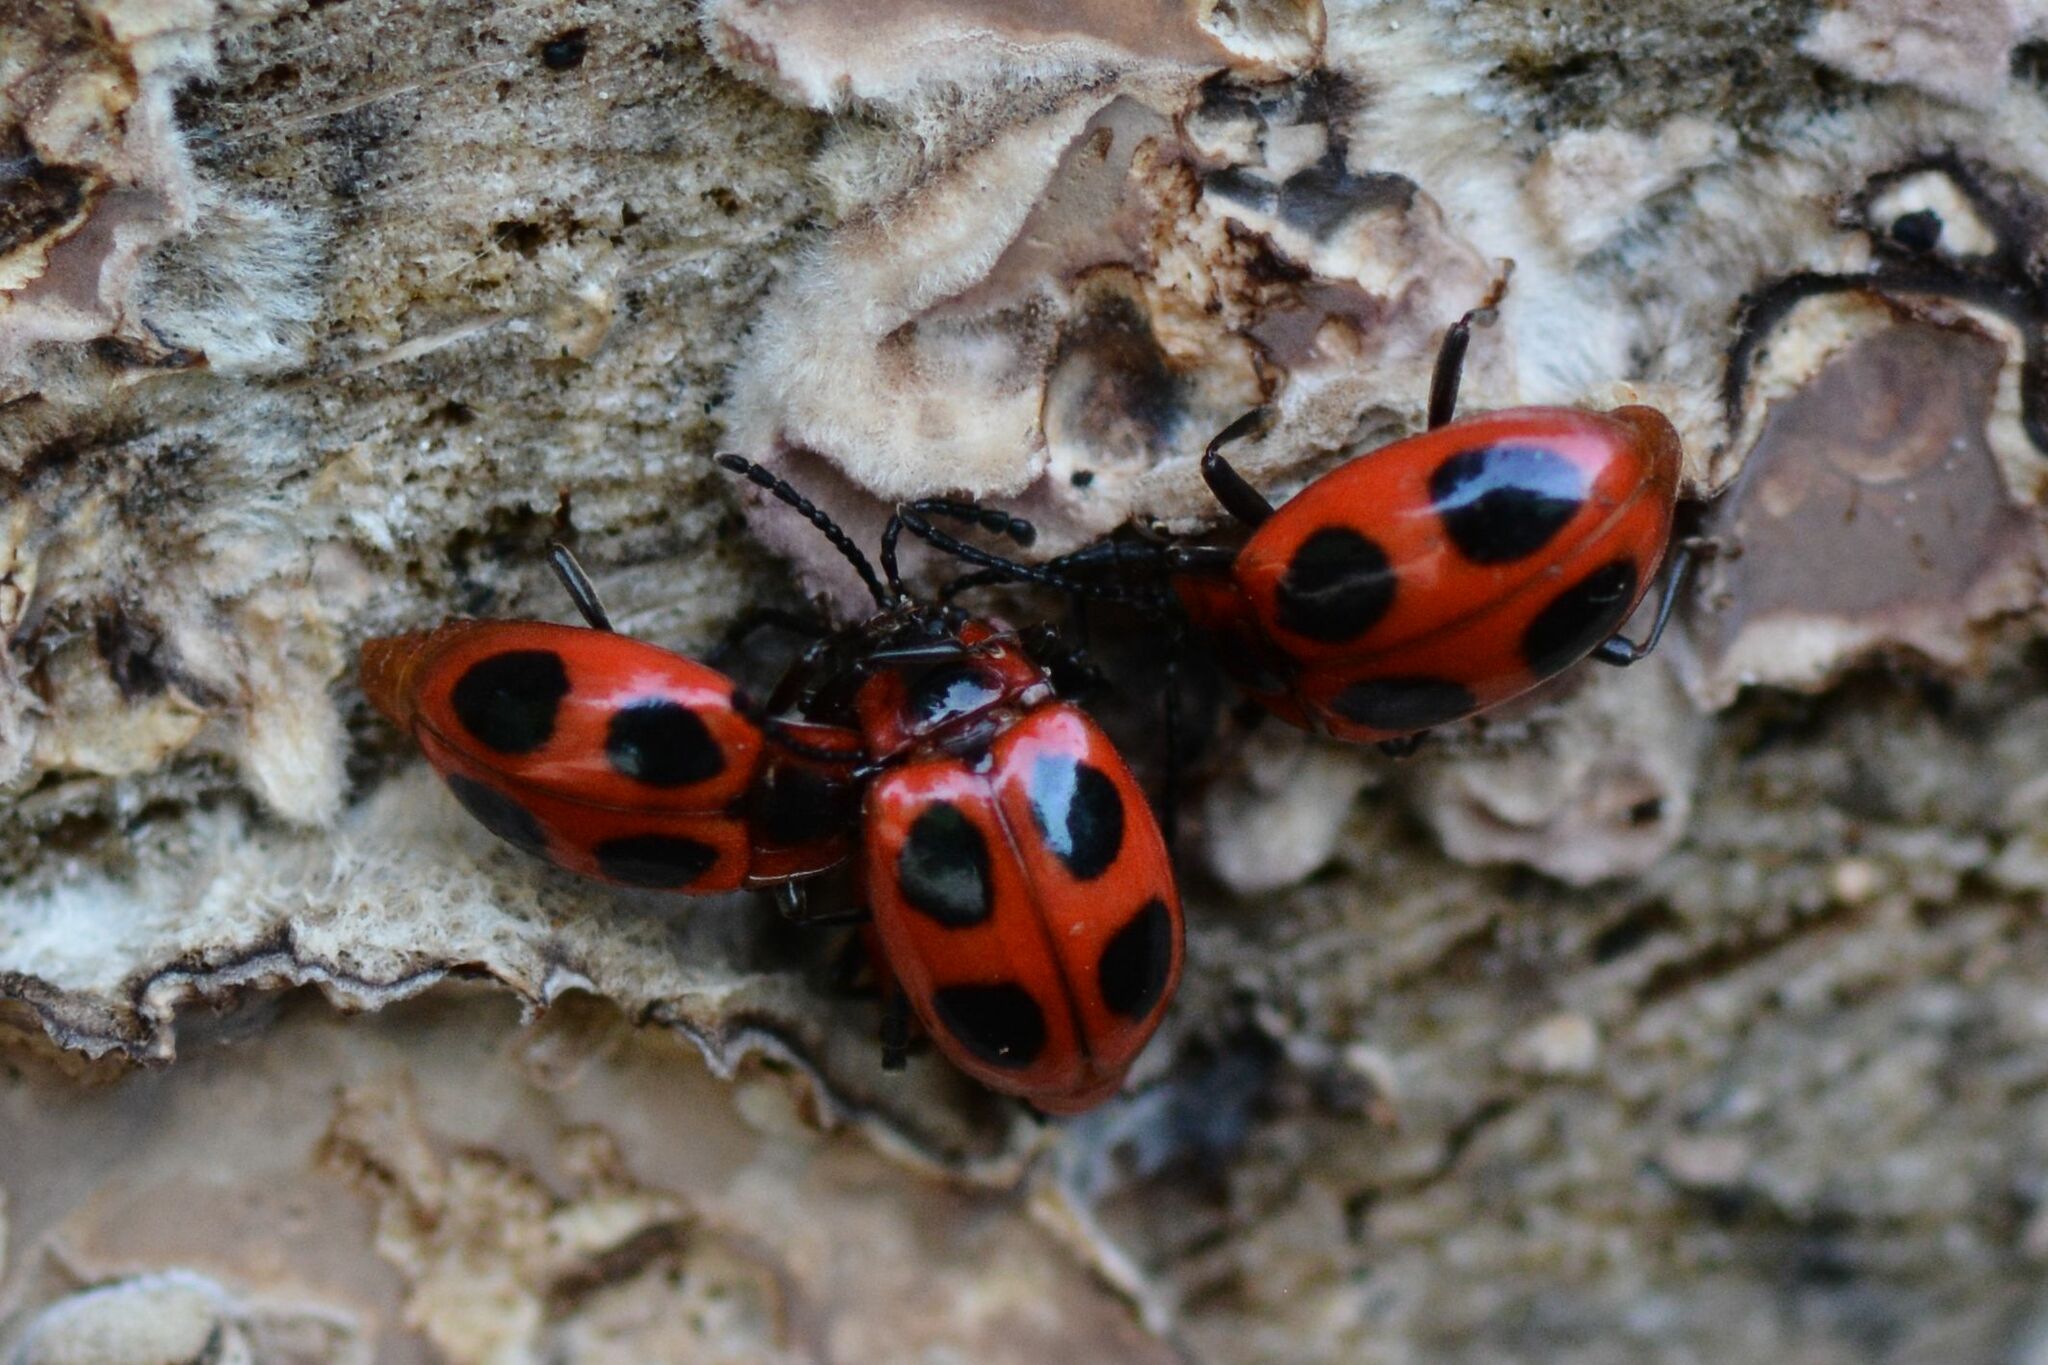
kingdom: Animalia
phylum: Arthropoda
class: Insecta
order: Coleoptera
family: Endomychidae
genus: Endomychus
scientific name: Endomychus coccineus
